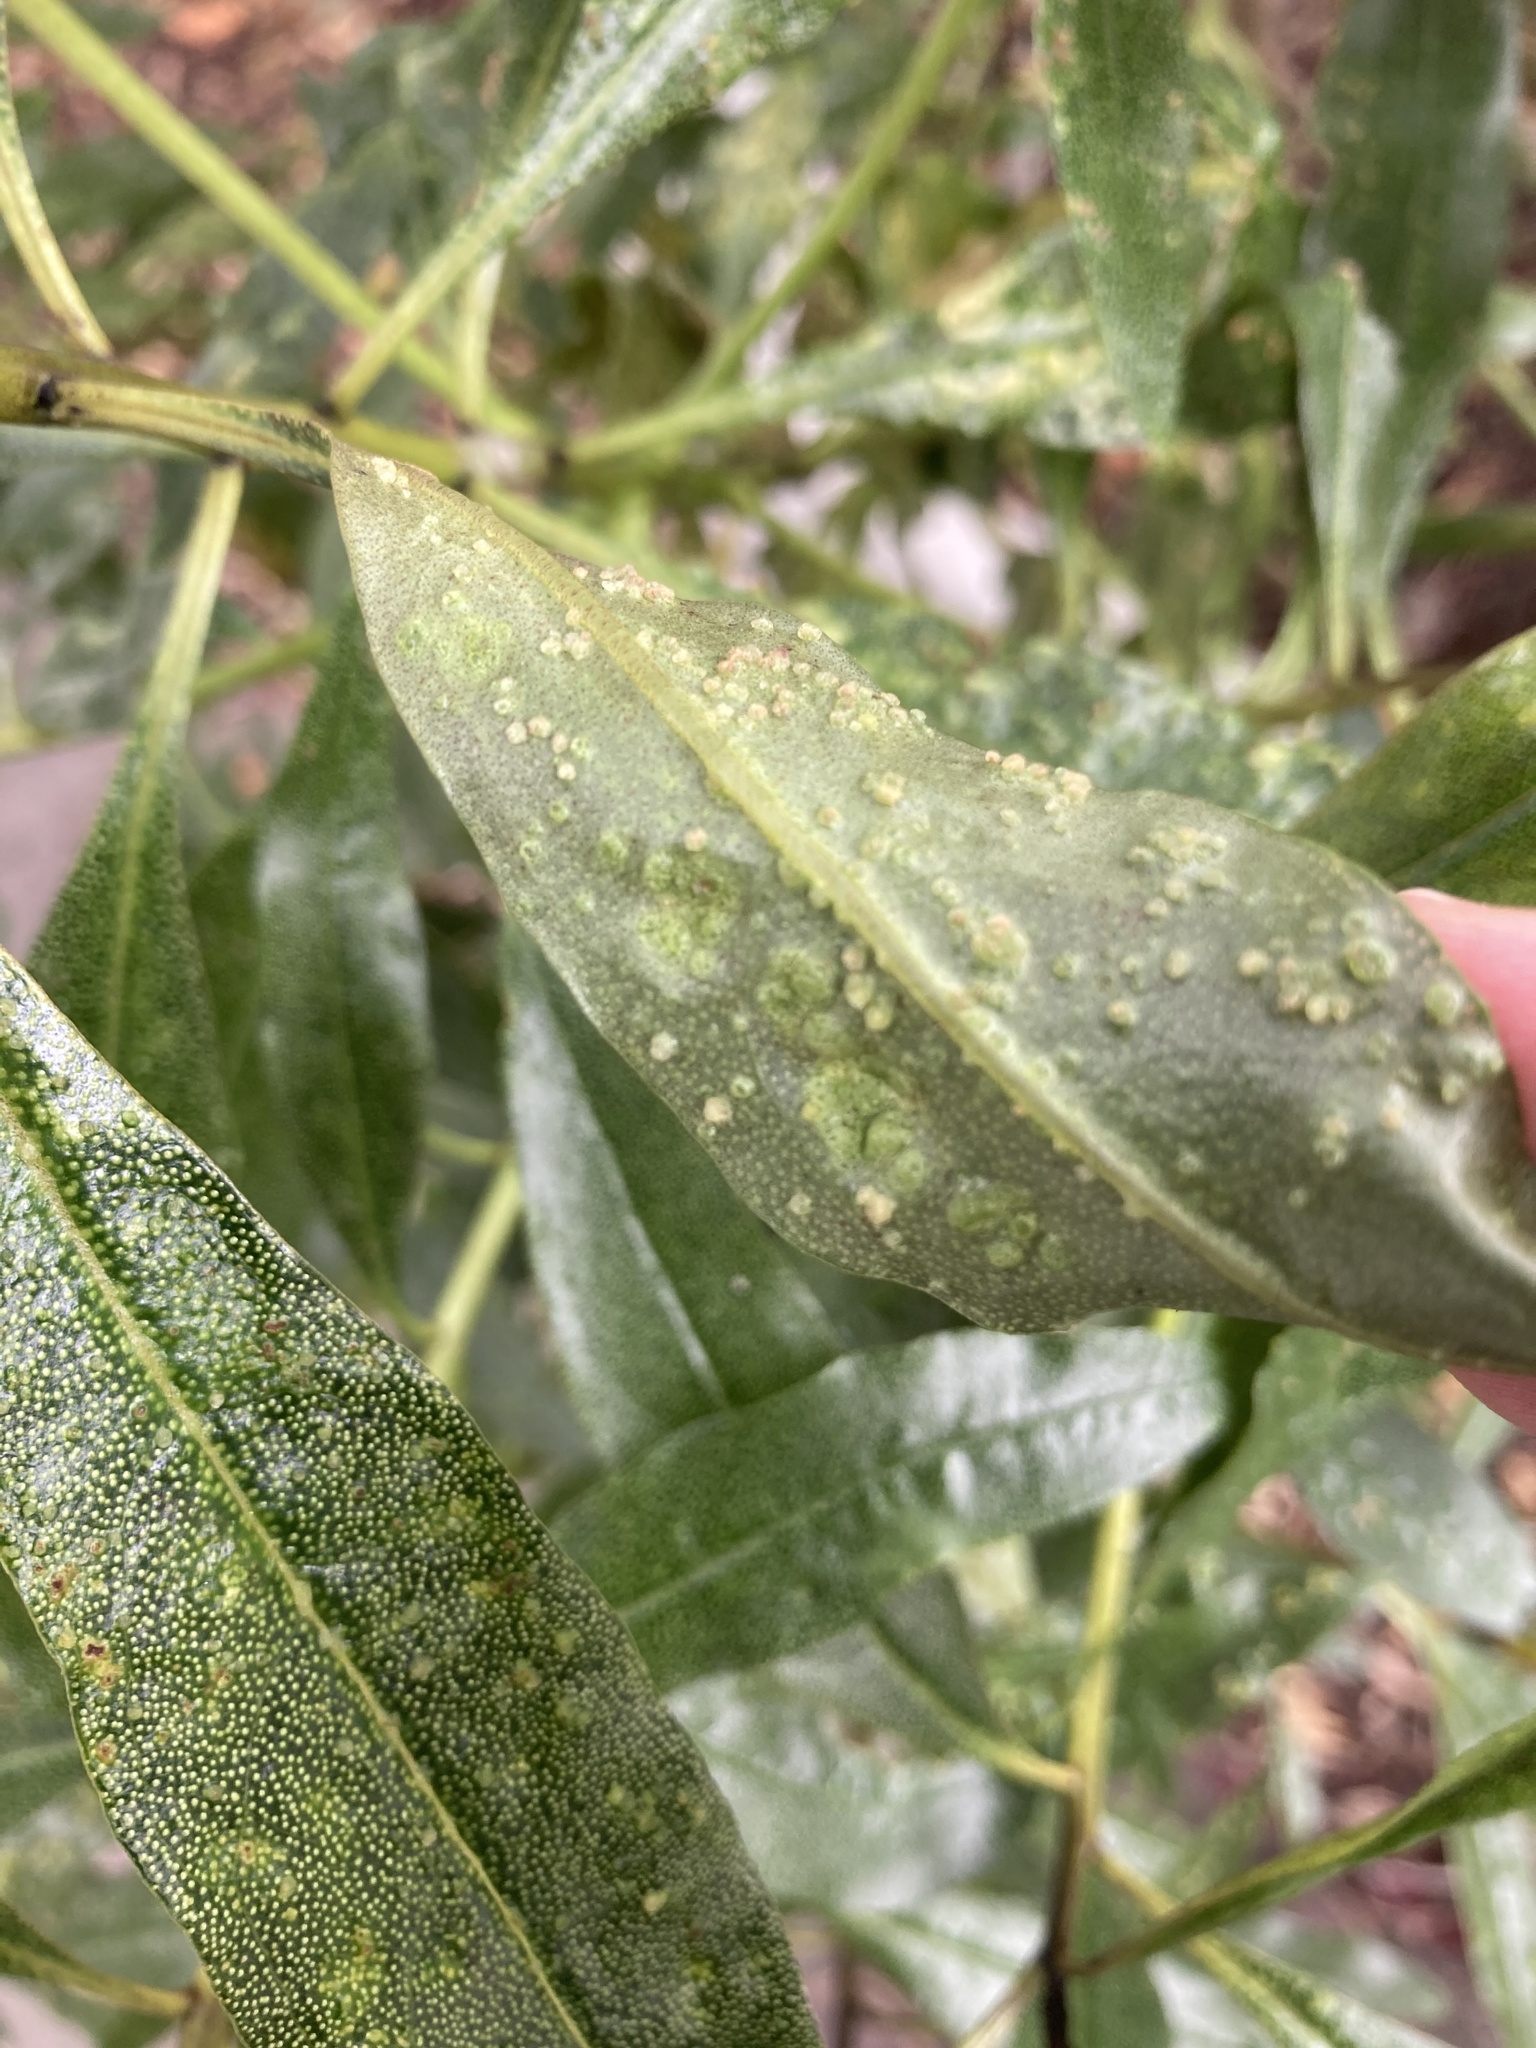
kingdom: Animalia
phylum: Arthropoda
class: Arachnida
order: Trombidiformes
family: Eriophyidae
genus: Aceria
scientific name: Aceria healyi
